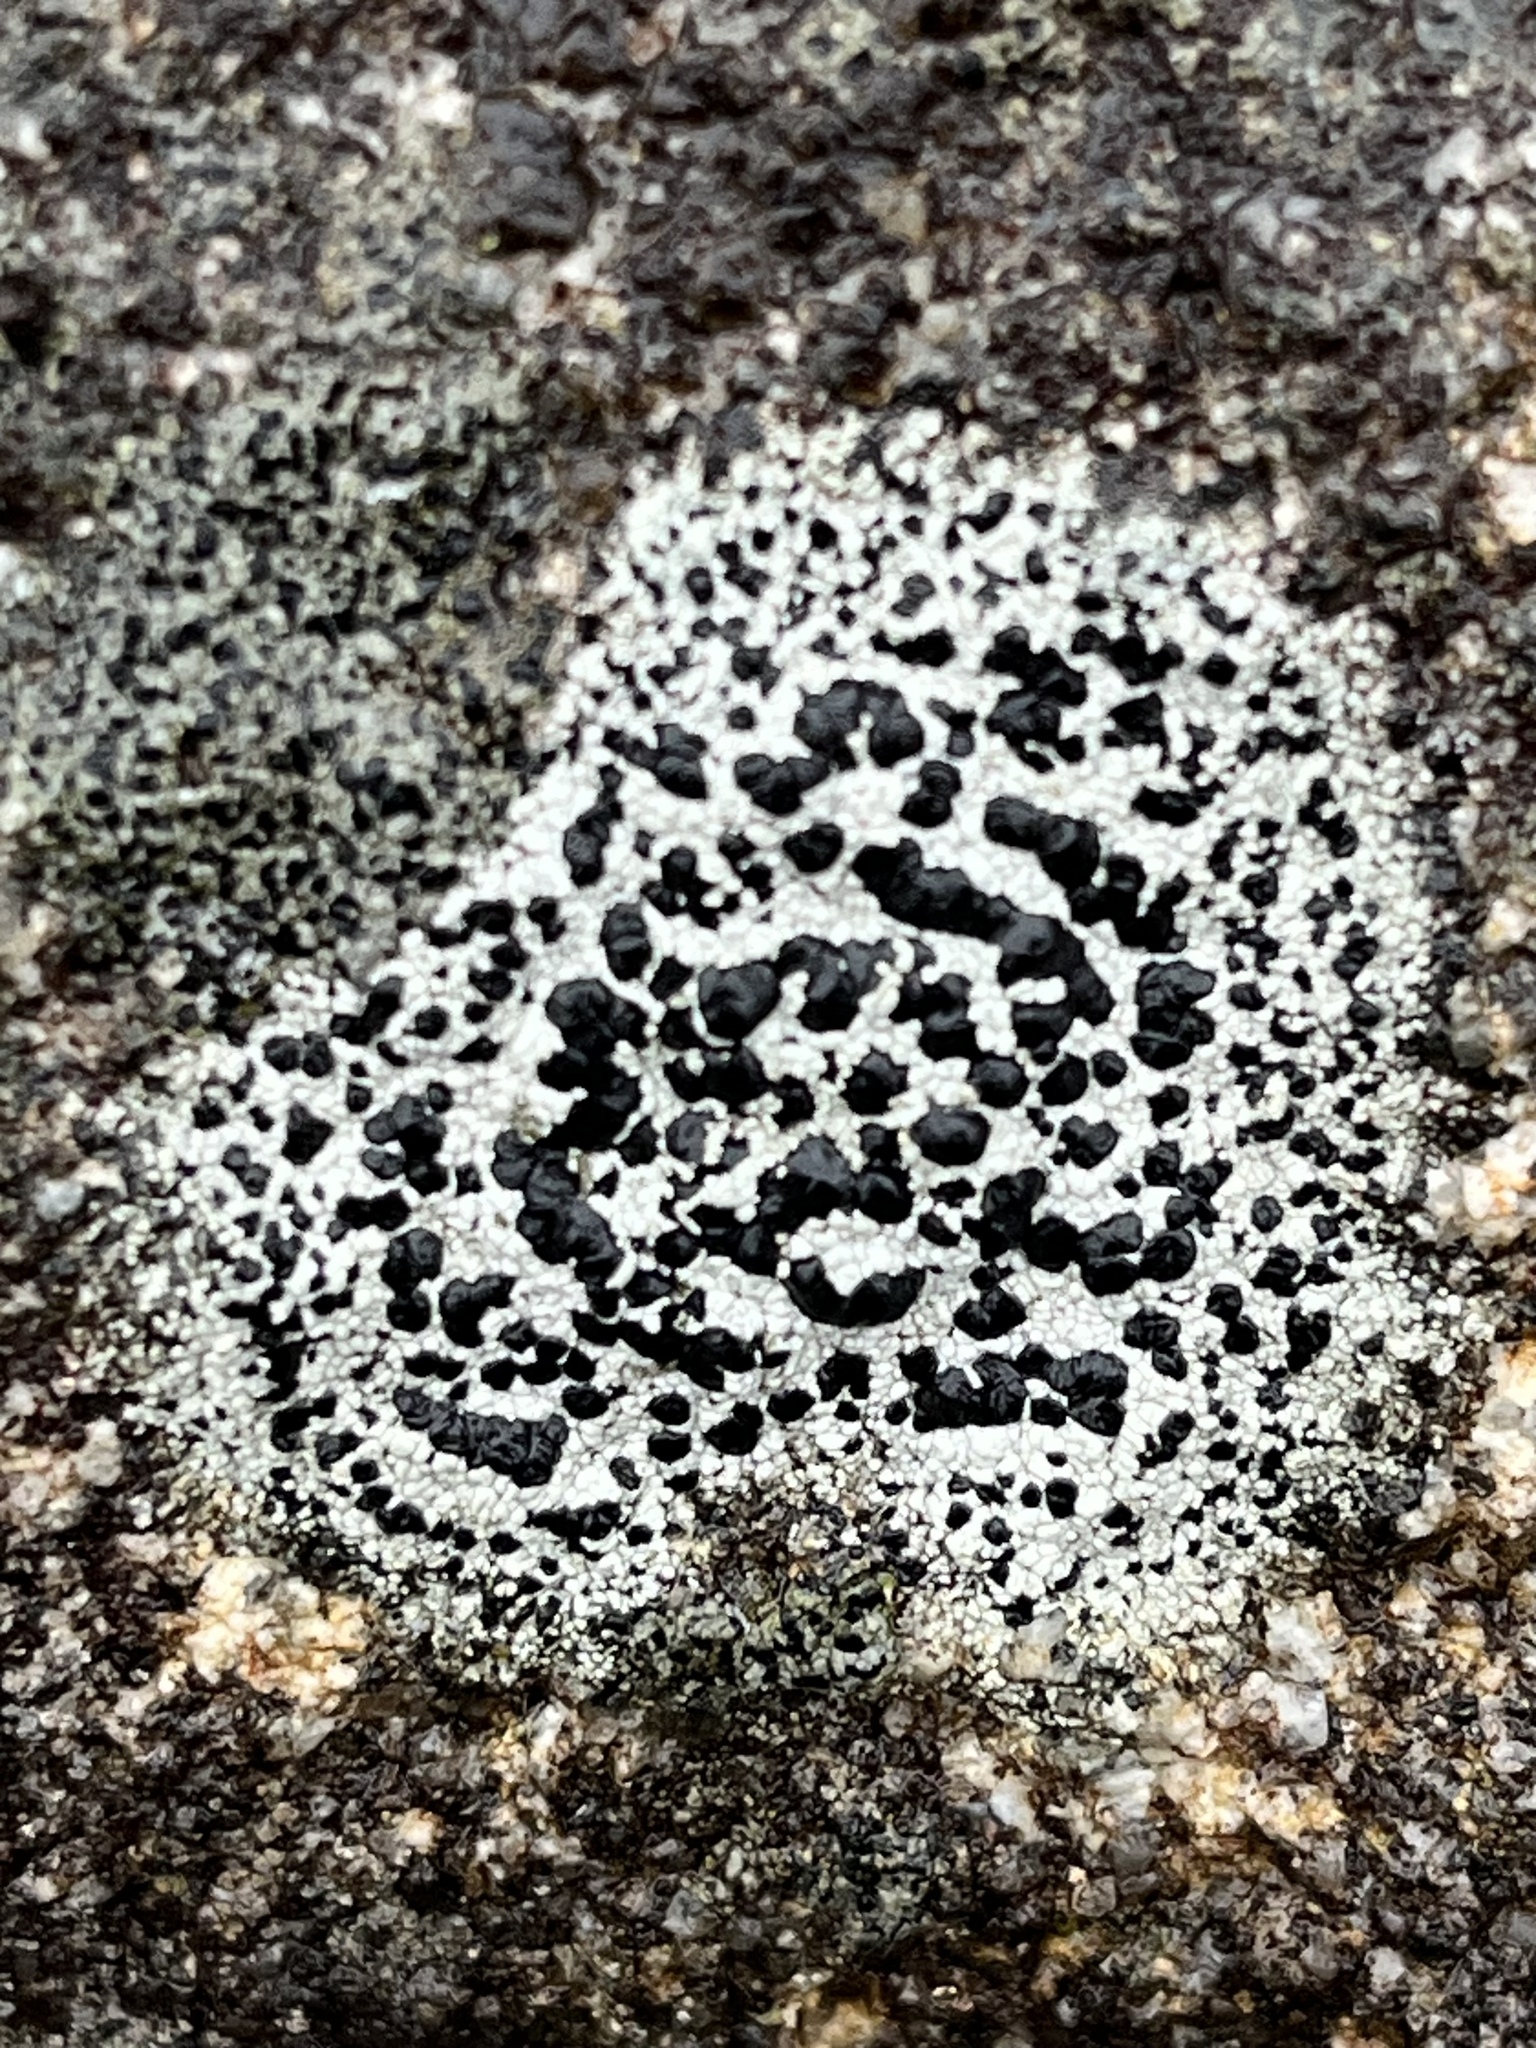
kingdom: Fungi
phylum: Ascomycota
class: Lecanoromycetes
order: Lecideales
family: Lecideaceae
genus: Porpidia
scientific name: Porpidia crustulata
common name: Concentric boulder lichen
